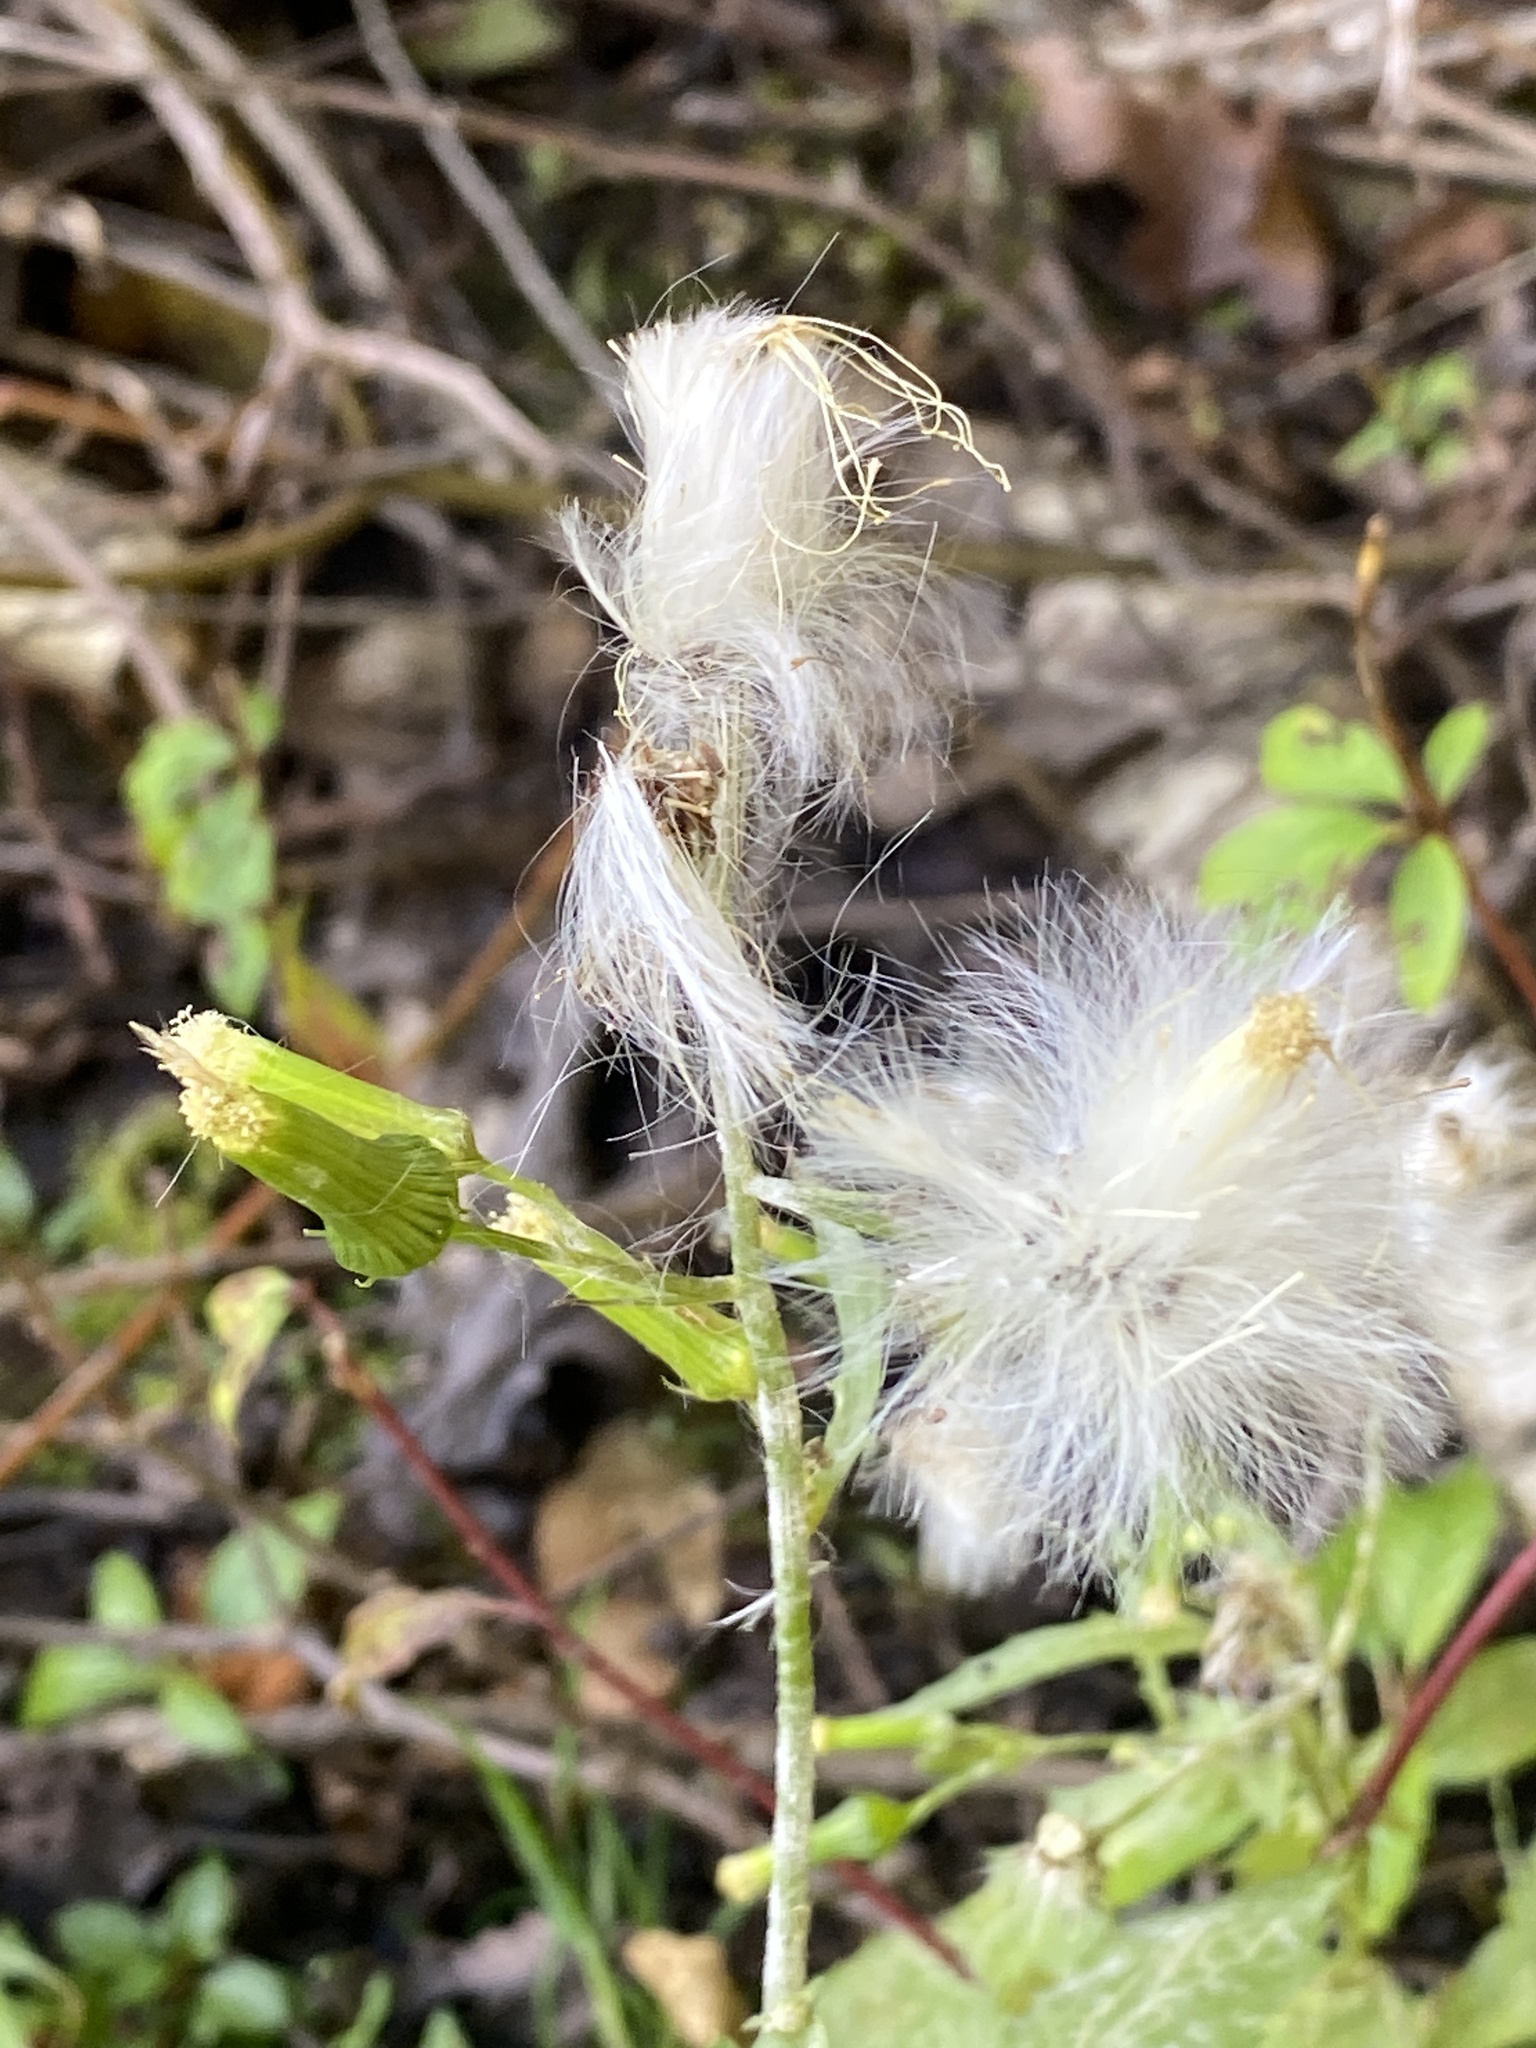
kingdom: Plantae
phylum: Tracheophyta
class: Magnoliopsida
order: Asterales
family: Asteraceae
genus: Erechtites
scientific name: Erechtites hieraciifolius
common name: American burnweed
